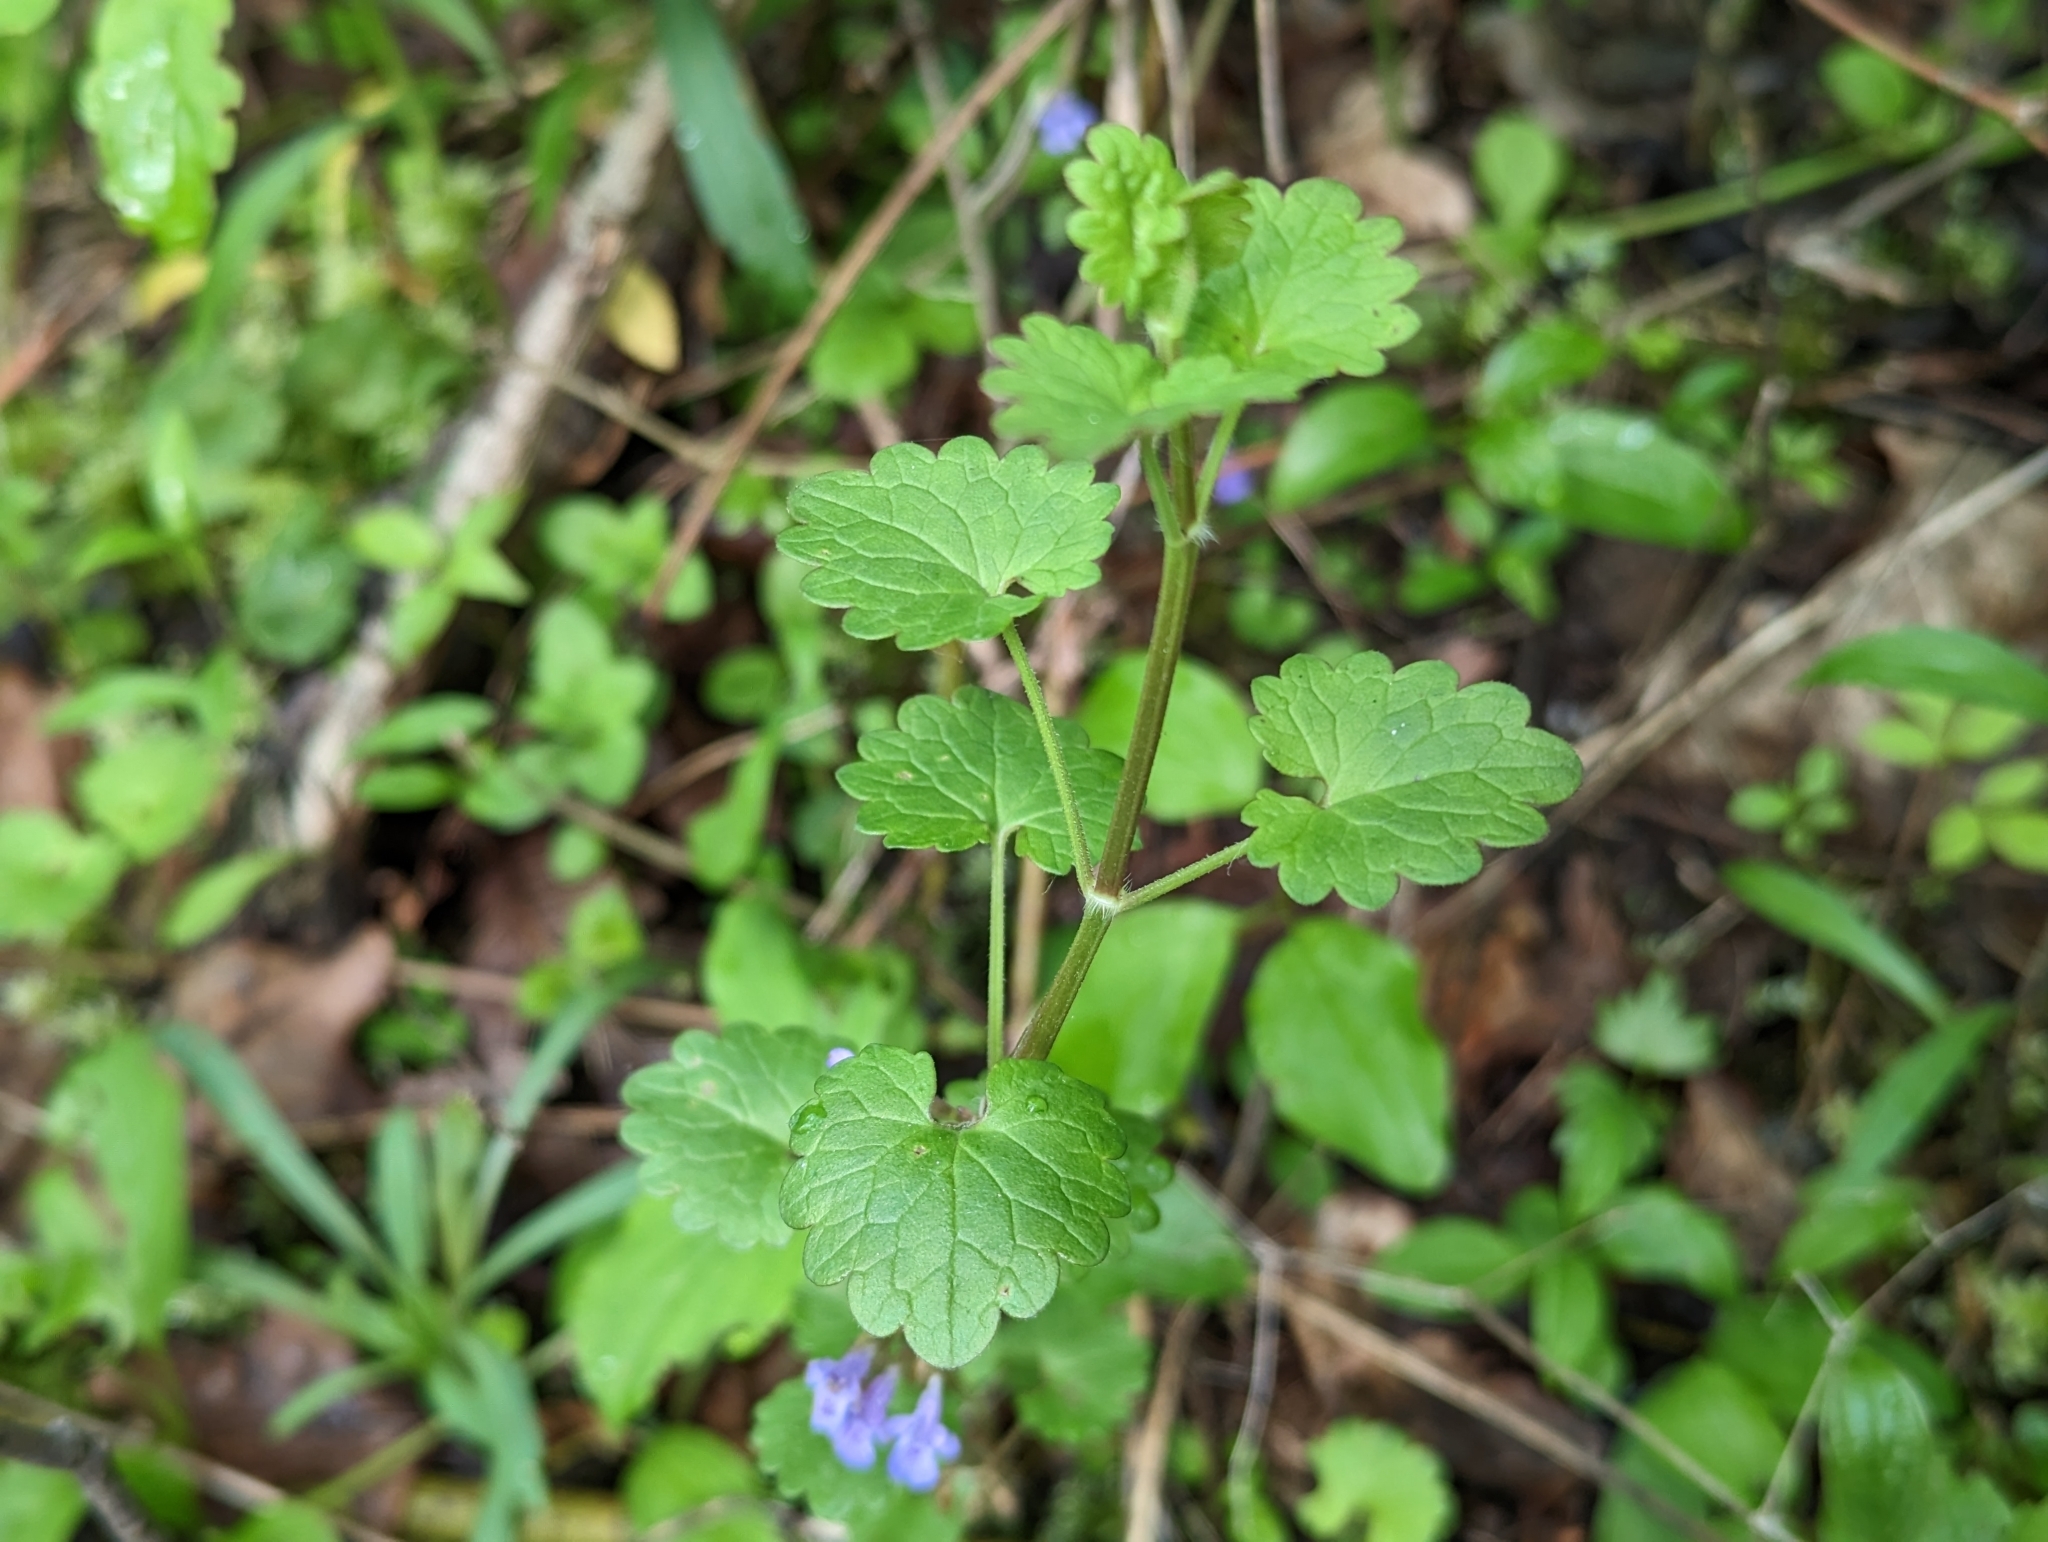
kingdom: Plantae
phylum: Tracheophyta
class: Magnoliopsida
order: Lamiales
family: Lamiaceae
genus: Glechoma
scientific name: Glechoma hederacea
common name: Ground ivy
